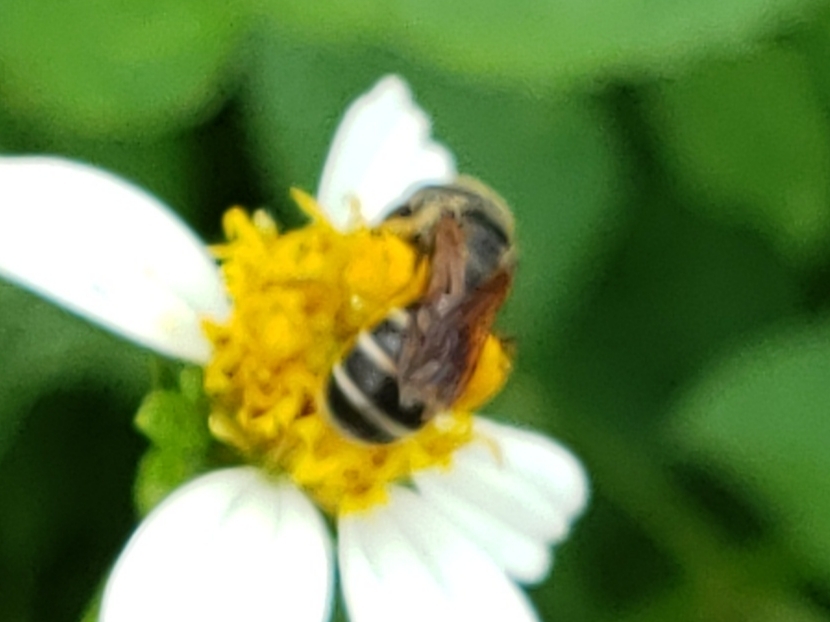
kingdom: Animalia
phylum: Arthropoda
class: Insecta
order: Hymenoptera
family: Halictidae
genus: Halictus
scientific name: Halictus poeyi
